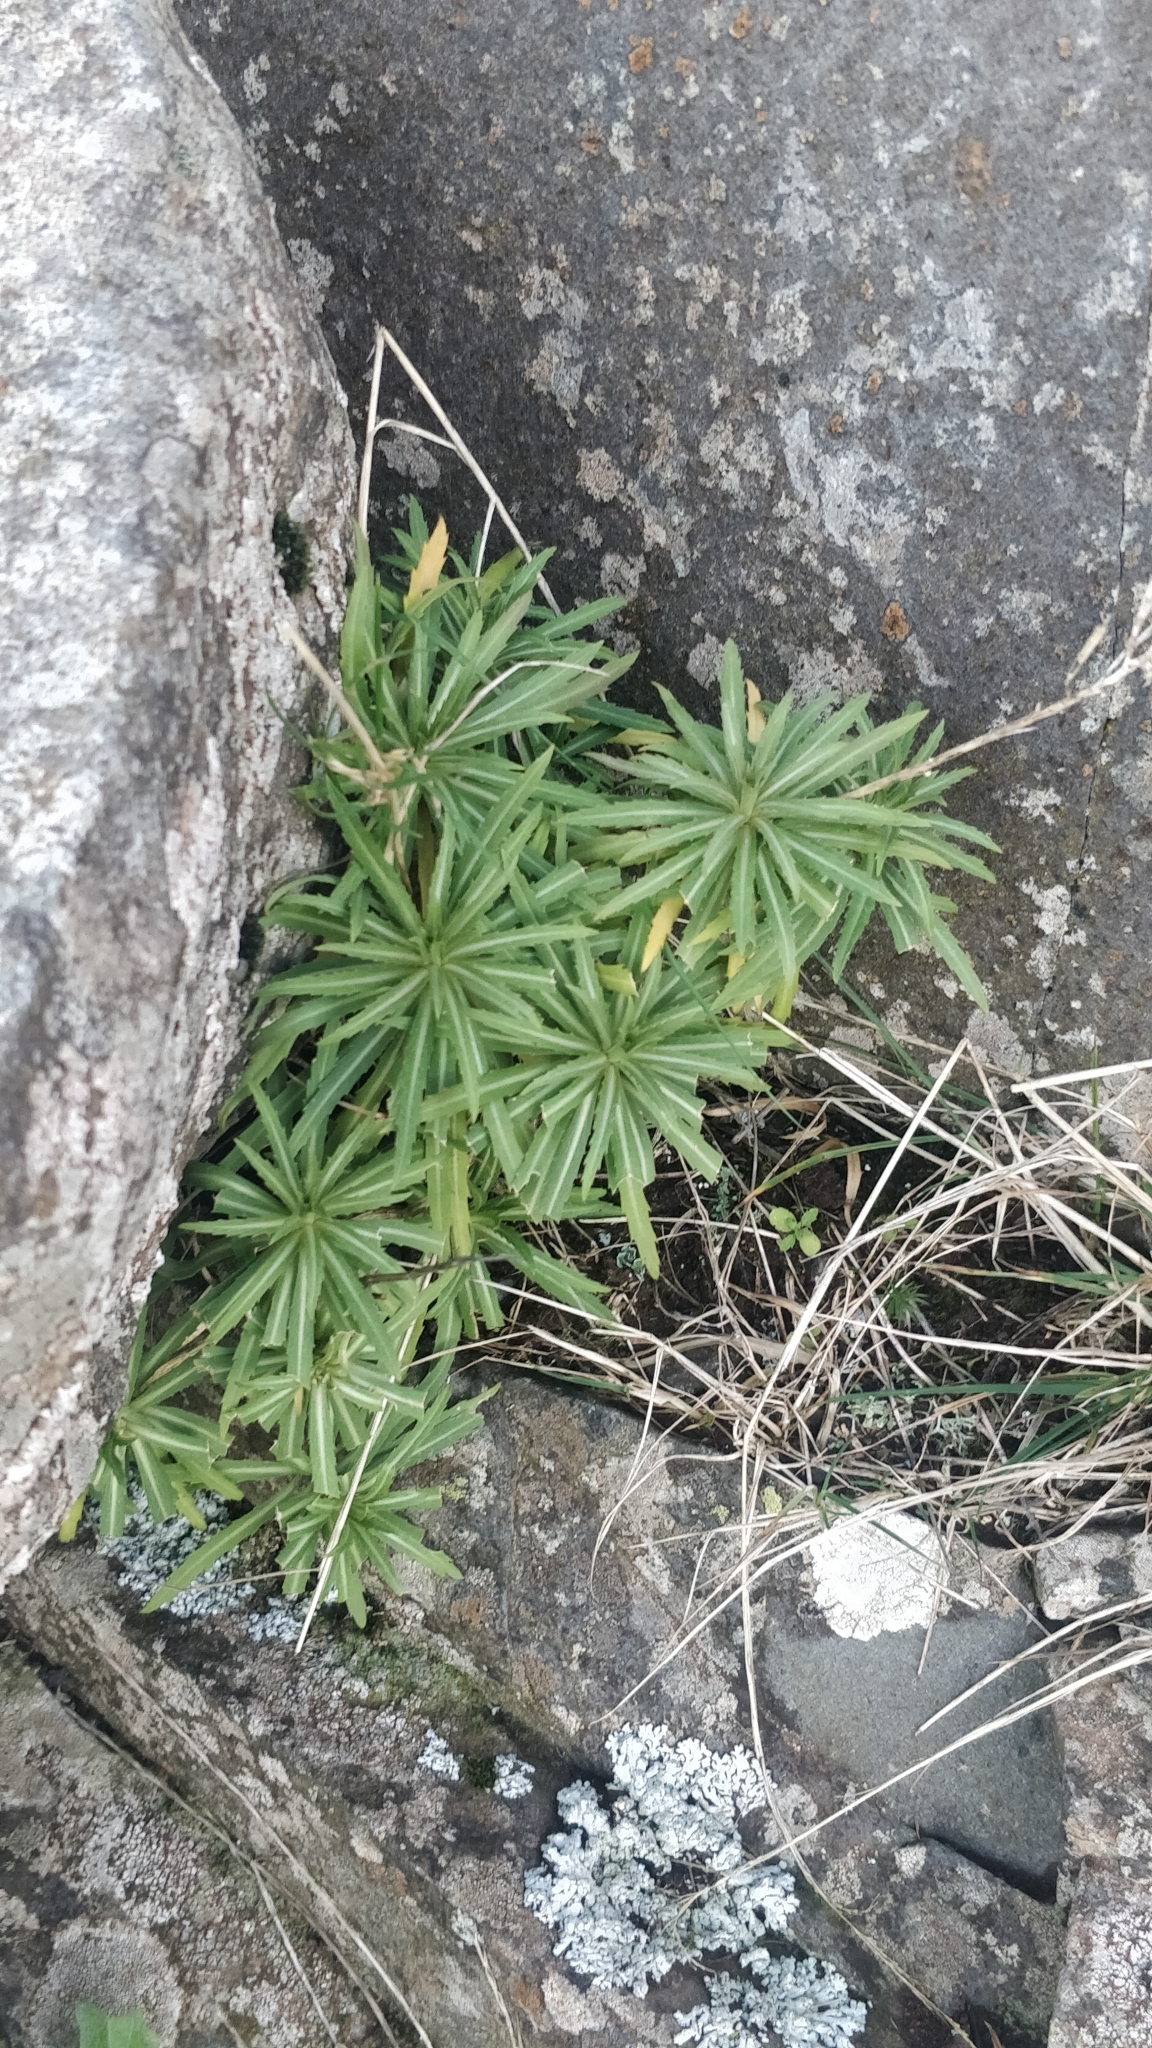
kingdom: Plantae
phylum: Tracheophyta
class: Magnoliopsida
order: Asterales
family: Asteraceae
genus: Carlina
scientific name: Carlina salicifolia
